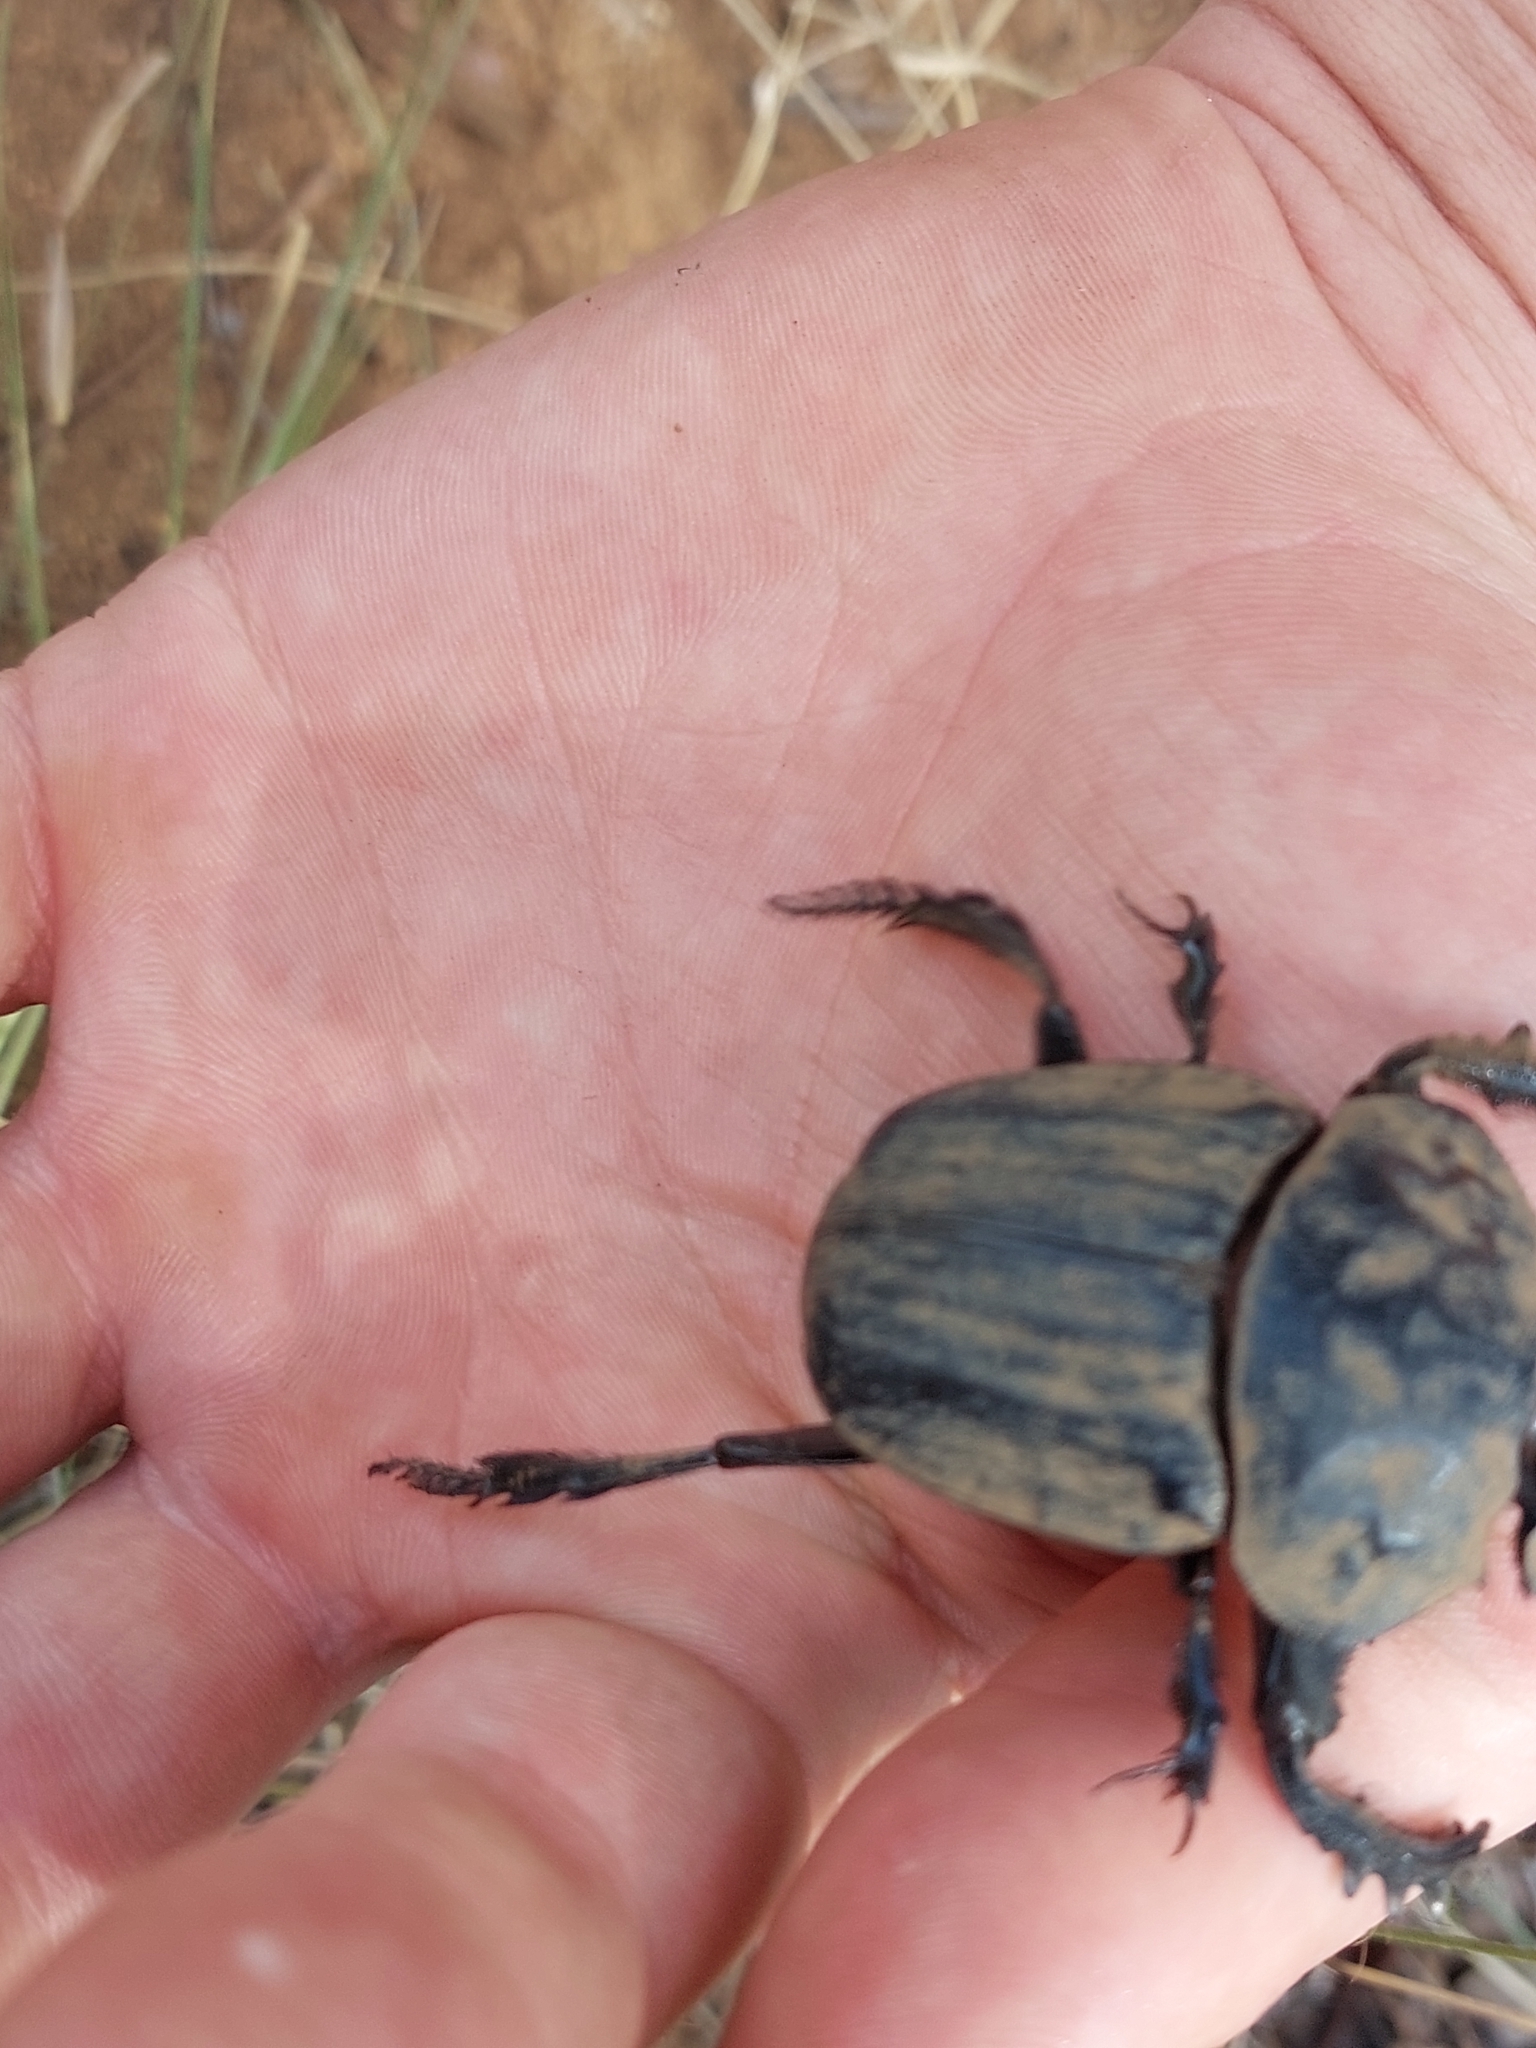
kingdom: Animalia
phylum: Arthropoda
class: Insecta
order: Coleoptera
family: Scarabaeidae
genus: Pachylomera
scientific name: Pachylomera femoralis
